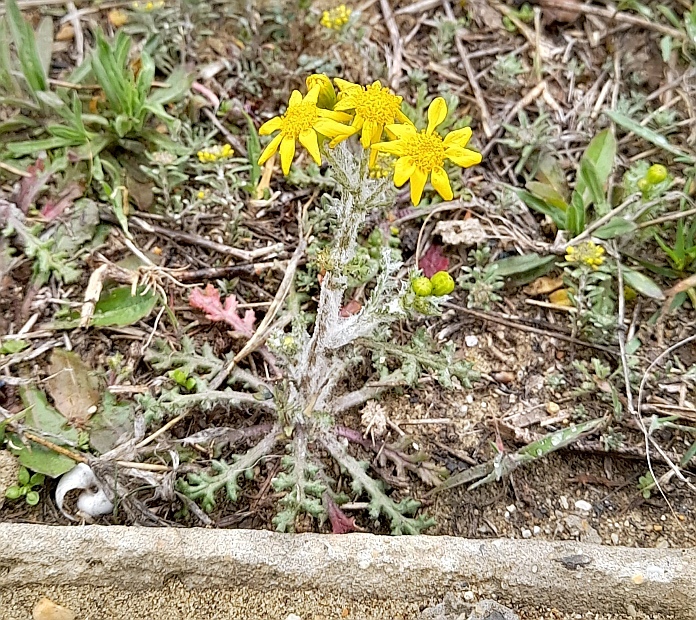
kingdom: Plantae
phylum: Tracheophyta
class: Magnoliopsida
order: Asterales
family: Asteraceae
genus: Senecio
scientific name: Senecio vernalis
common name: Eastern groundsel
